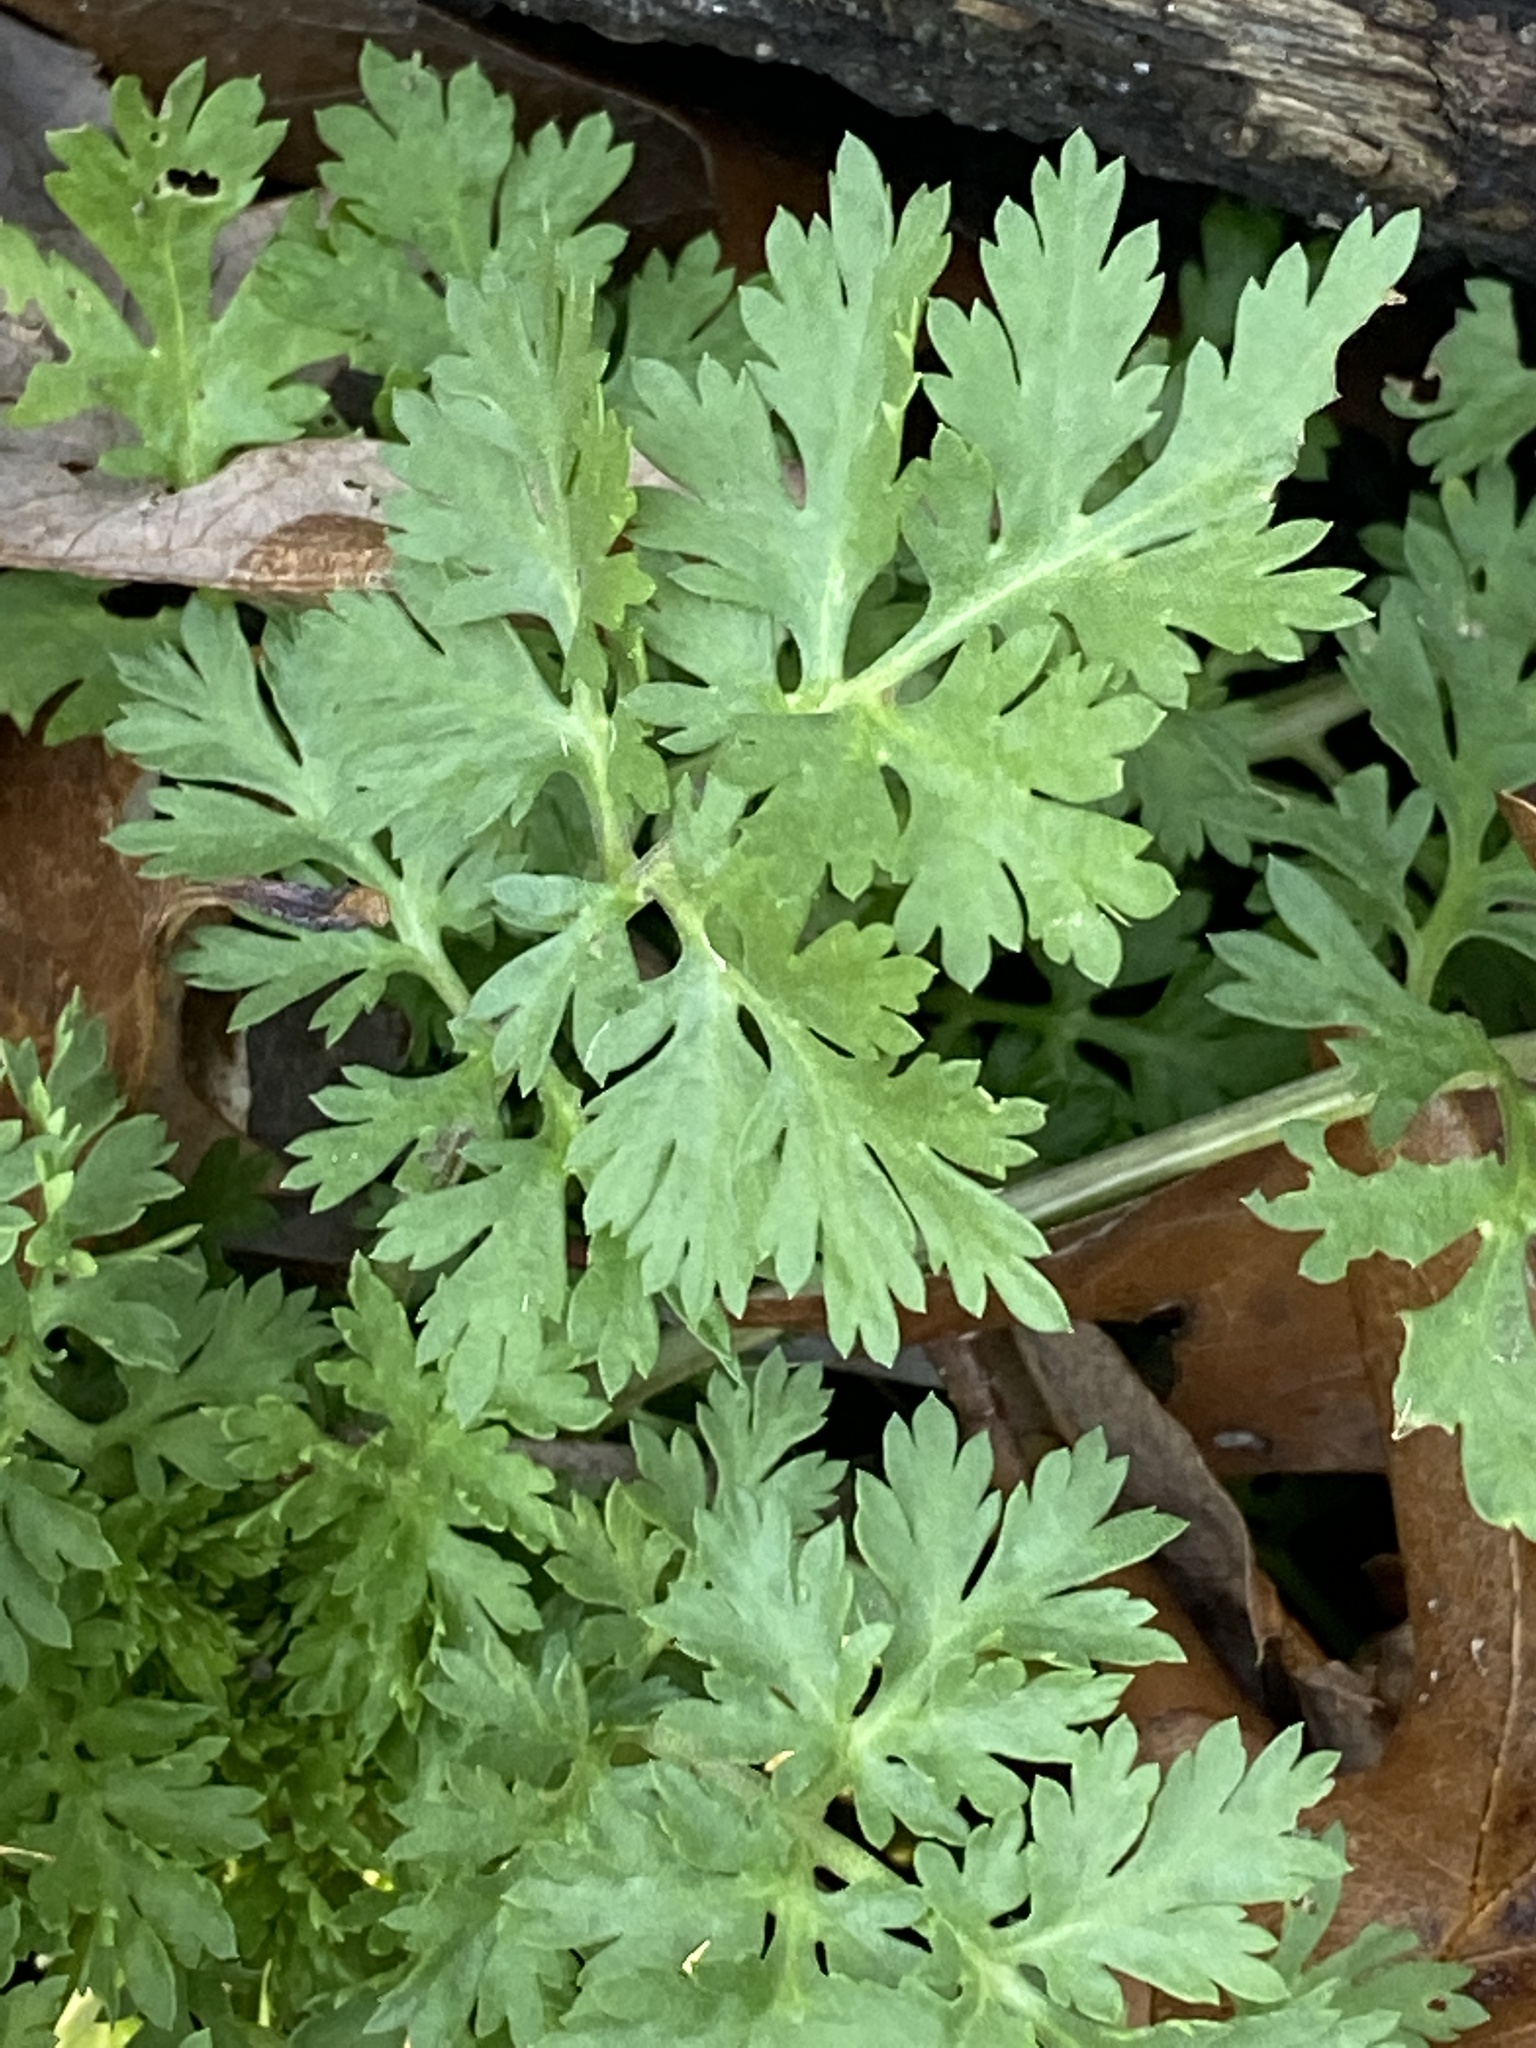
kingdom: Plantae
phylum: Tracheophyta
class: Magnoliopsida
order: Asterales
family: Asteraceae
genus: Tanacetum
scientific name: Tanacetum parthenium
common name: Feverfew
